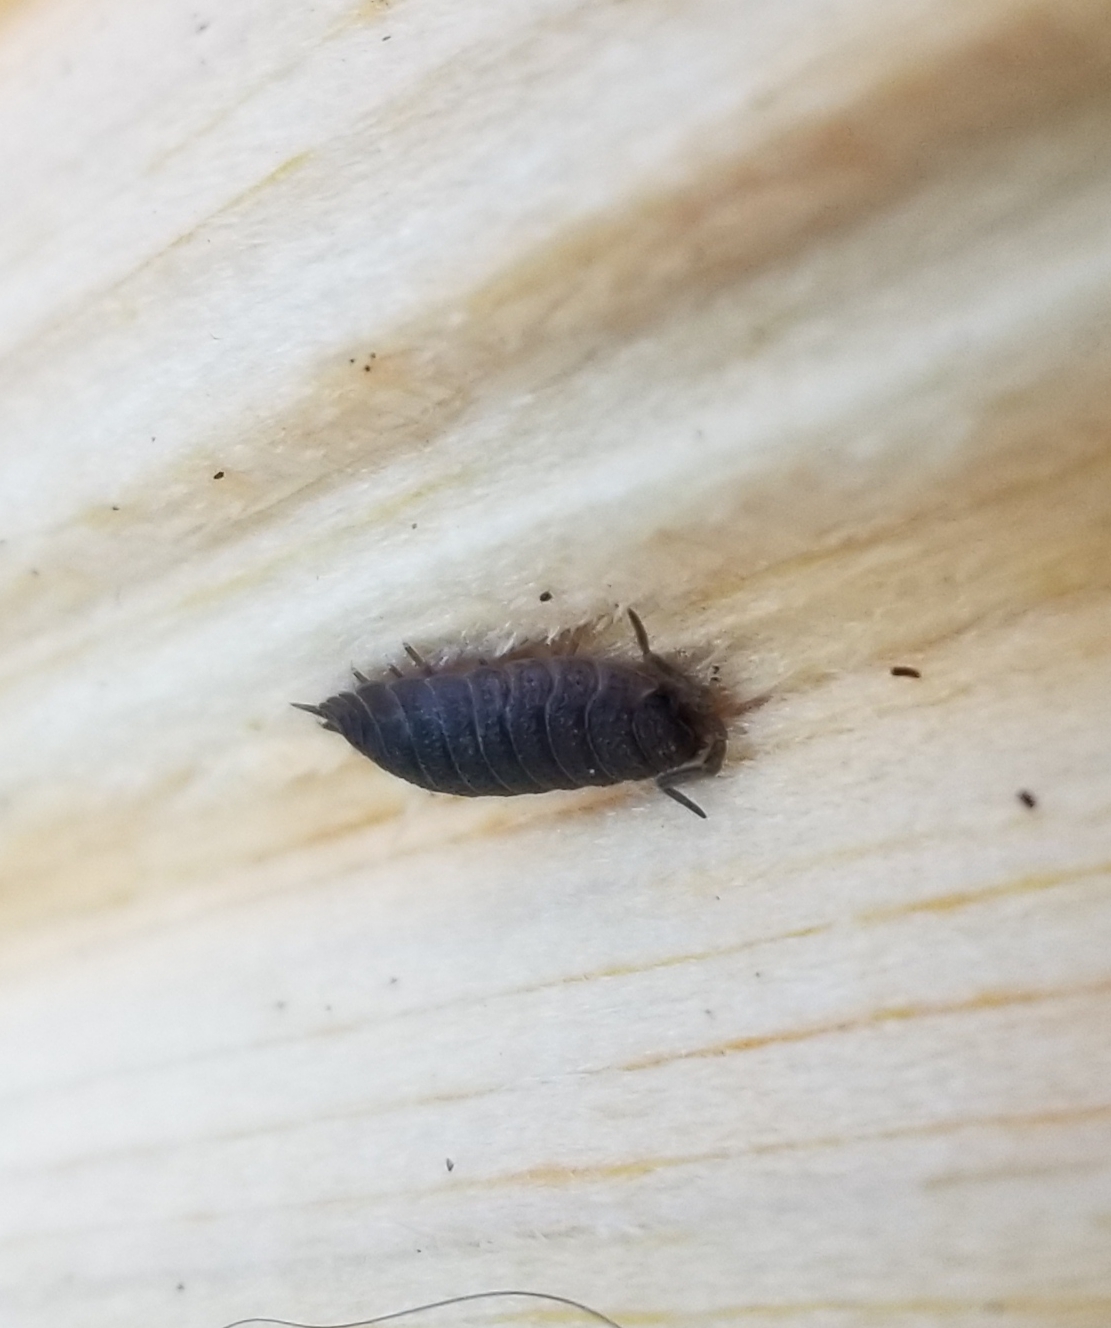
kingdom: Animalia
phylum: Arthropoda
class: Malacostraca
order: Isopoda
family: Porcellionidae
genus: Porcellio
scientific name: Porcellio scaber
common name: Common rough woodlouse
